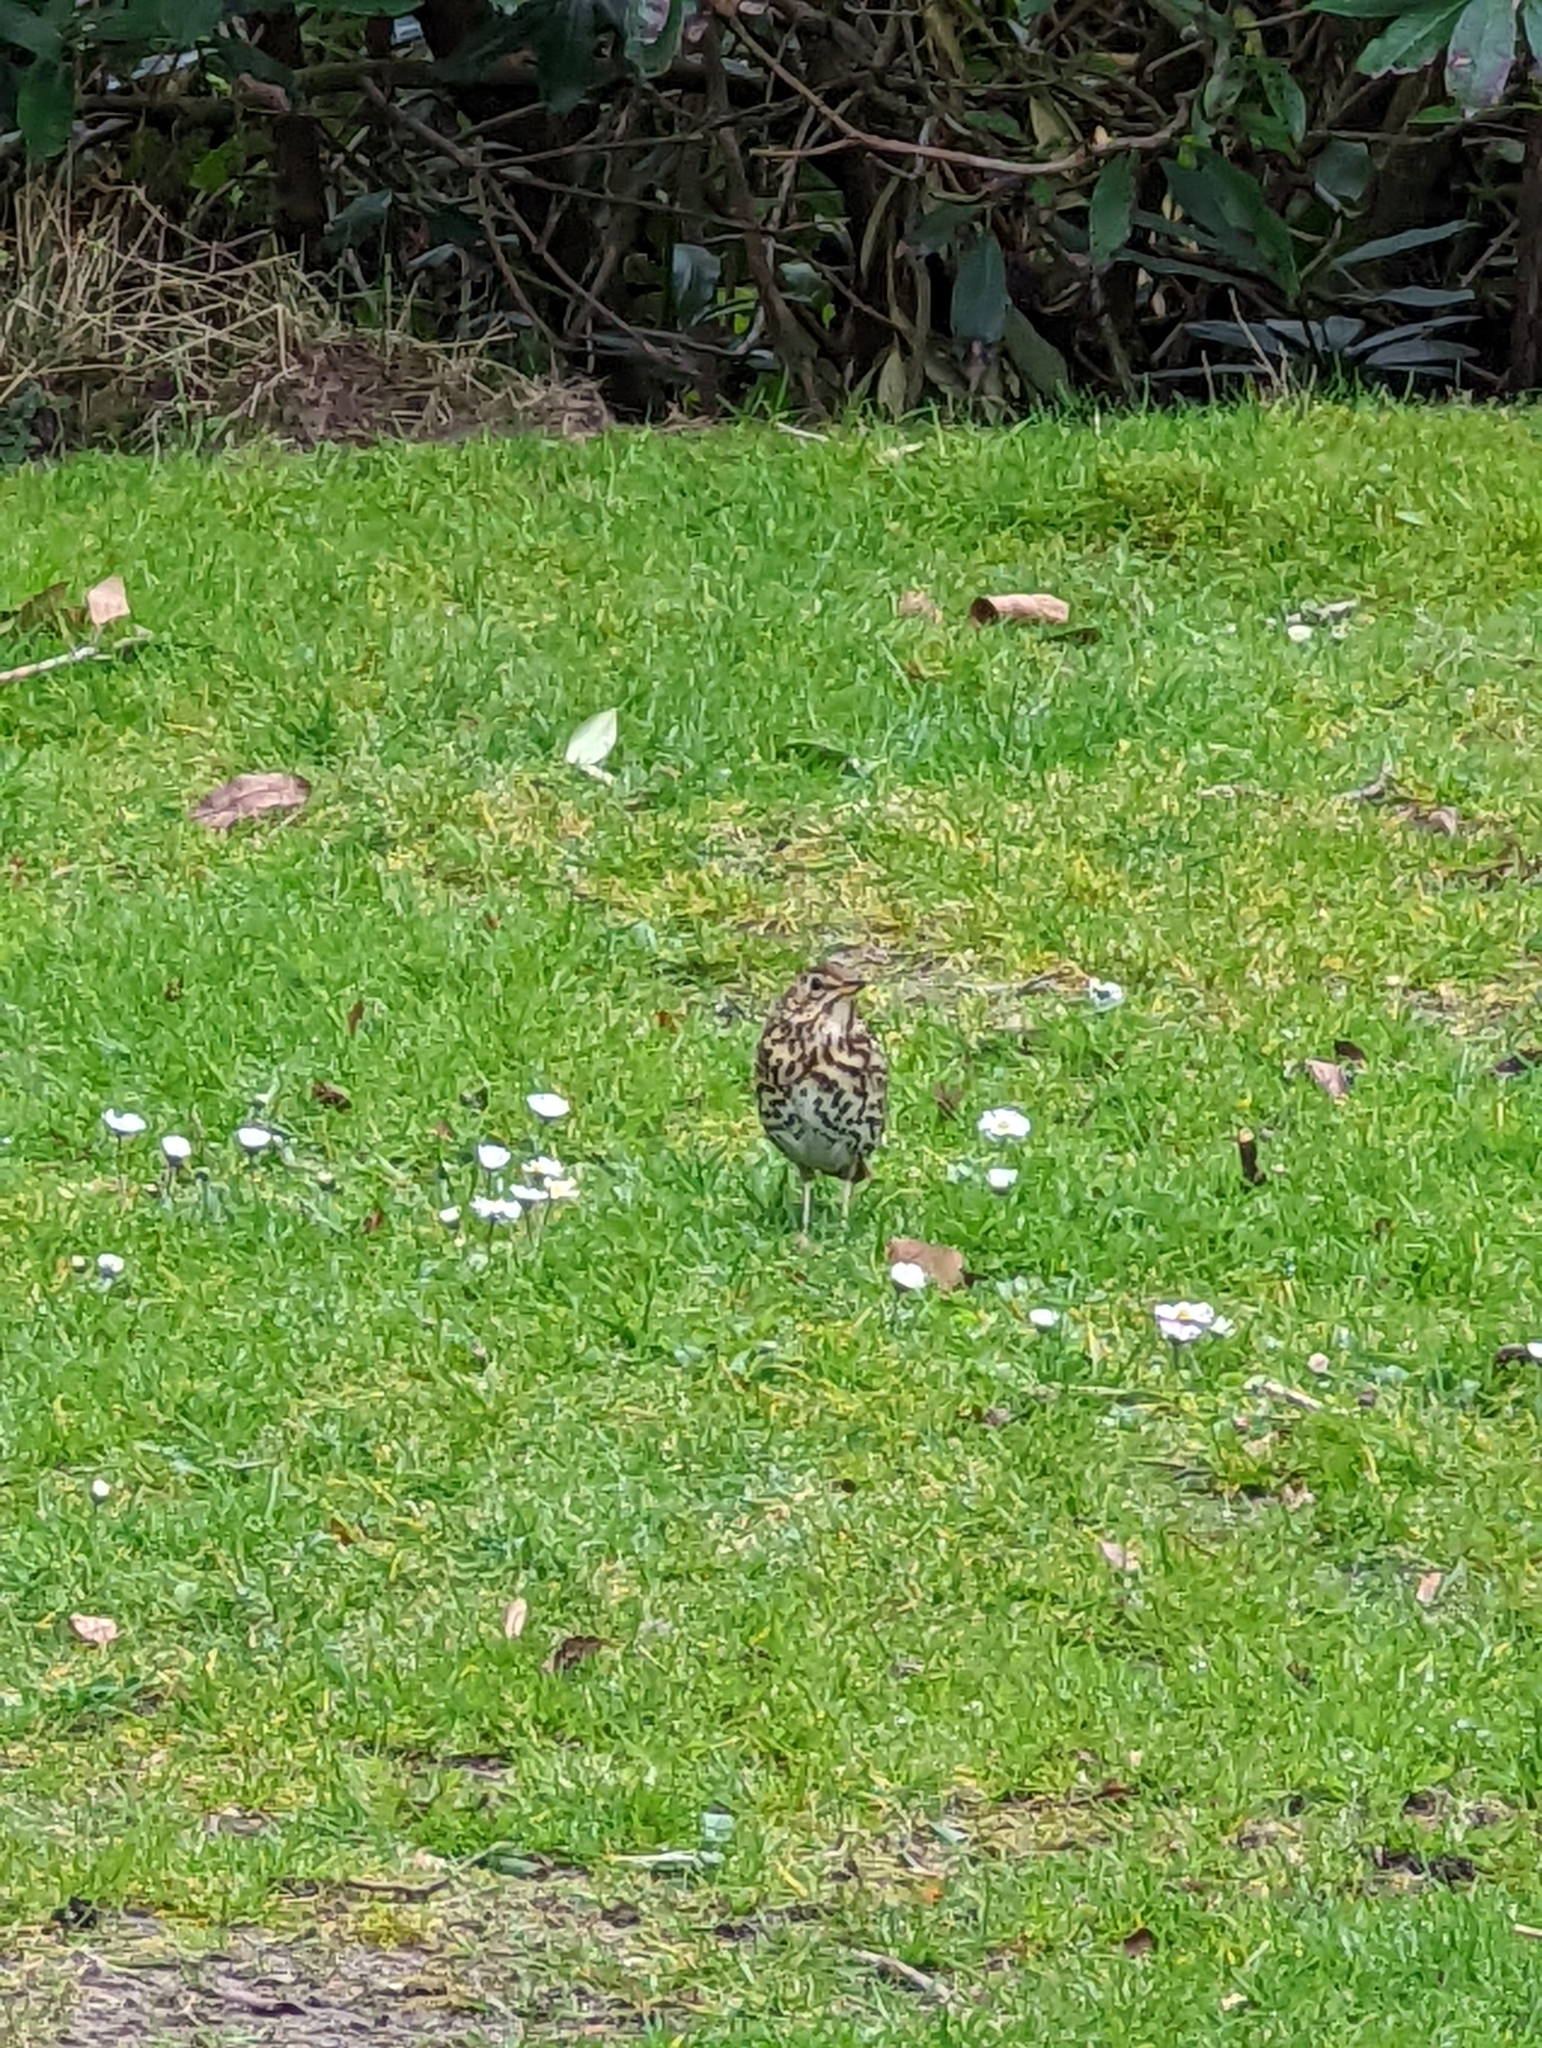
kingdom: Animalia
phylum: Chordata
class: Aves
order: Passeriformes
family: Turdidae
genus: Turdus
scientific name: Turdus philomelos
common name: Song thrush
